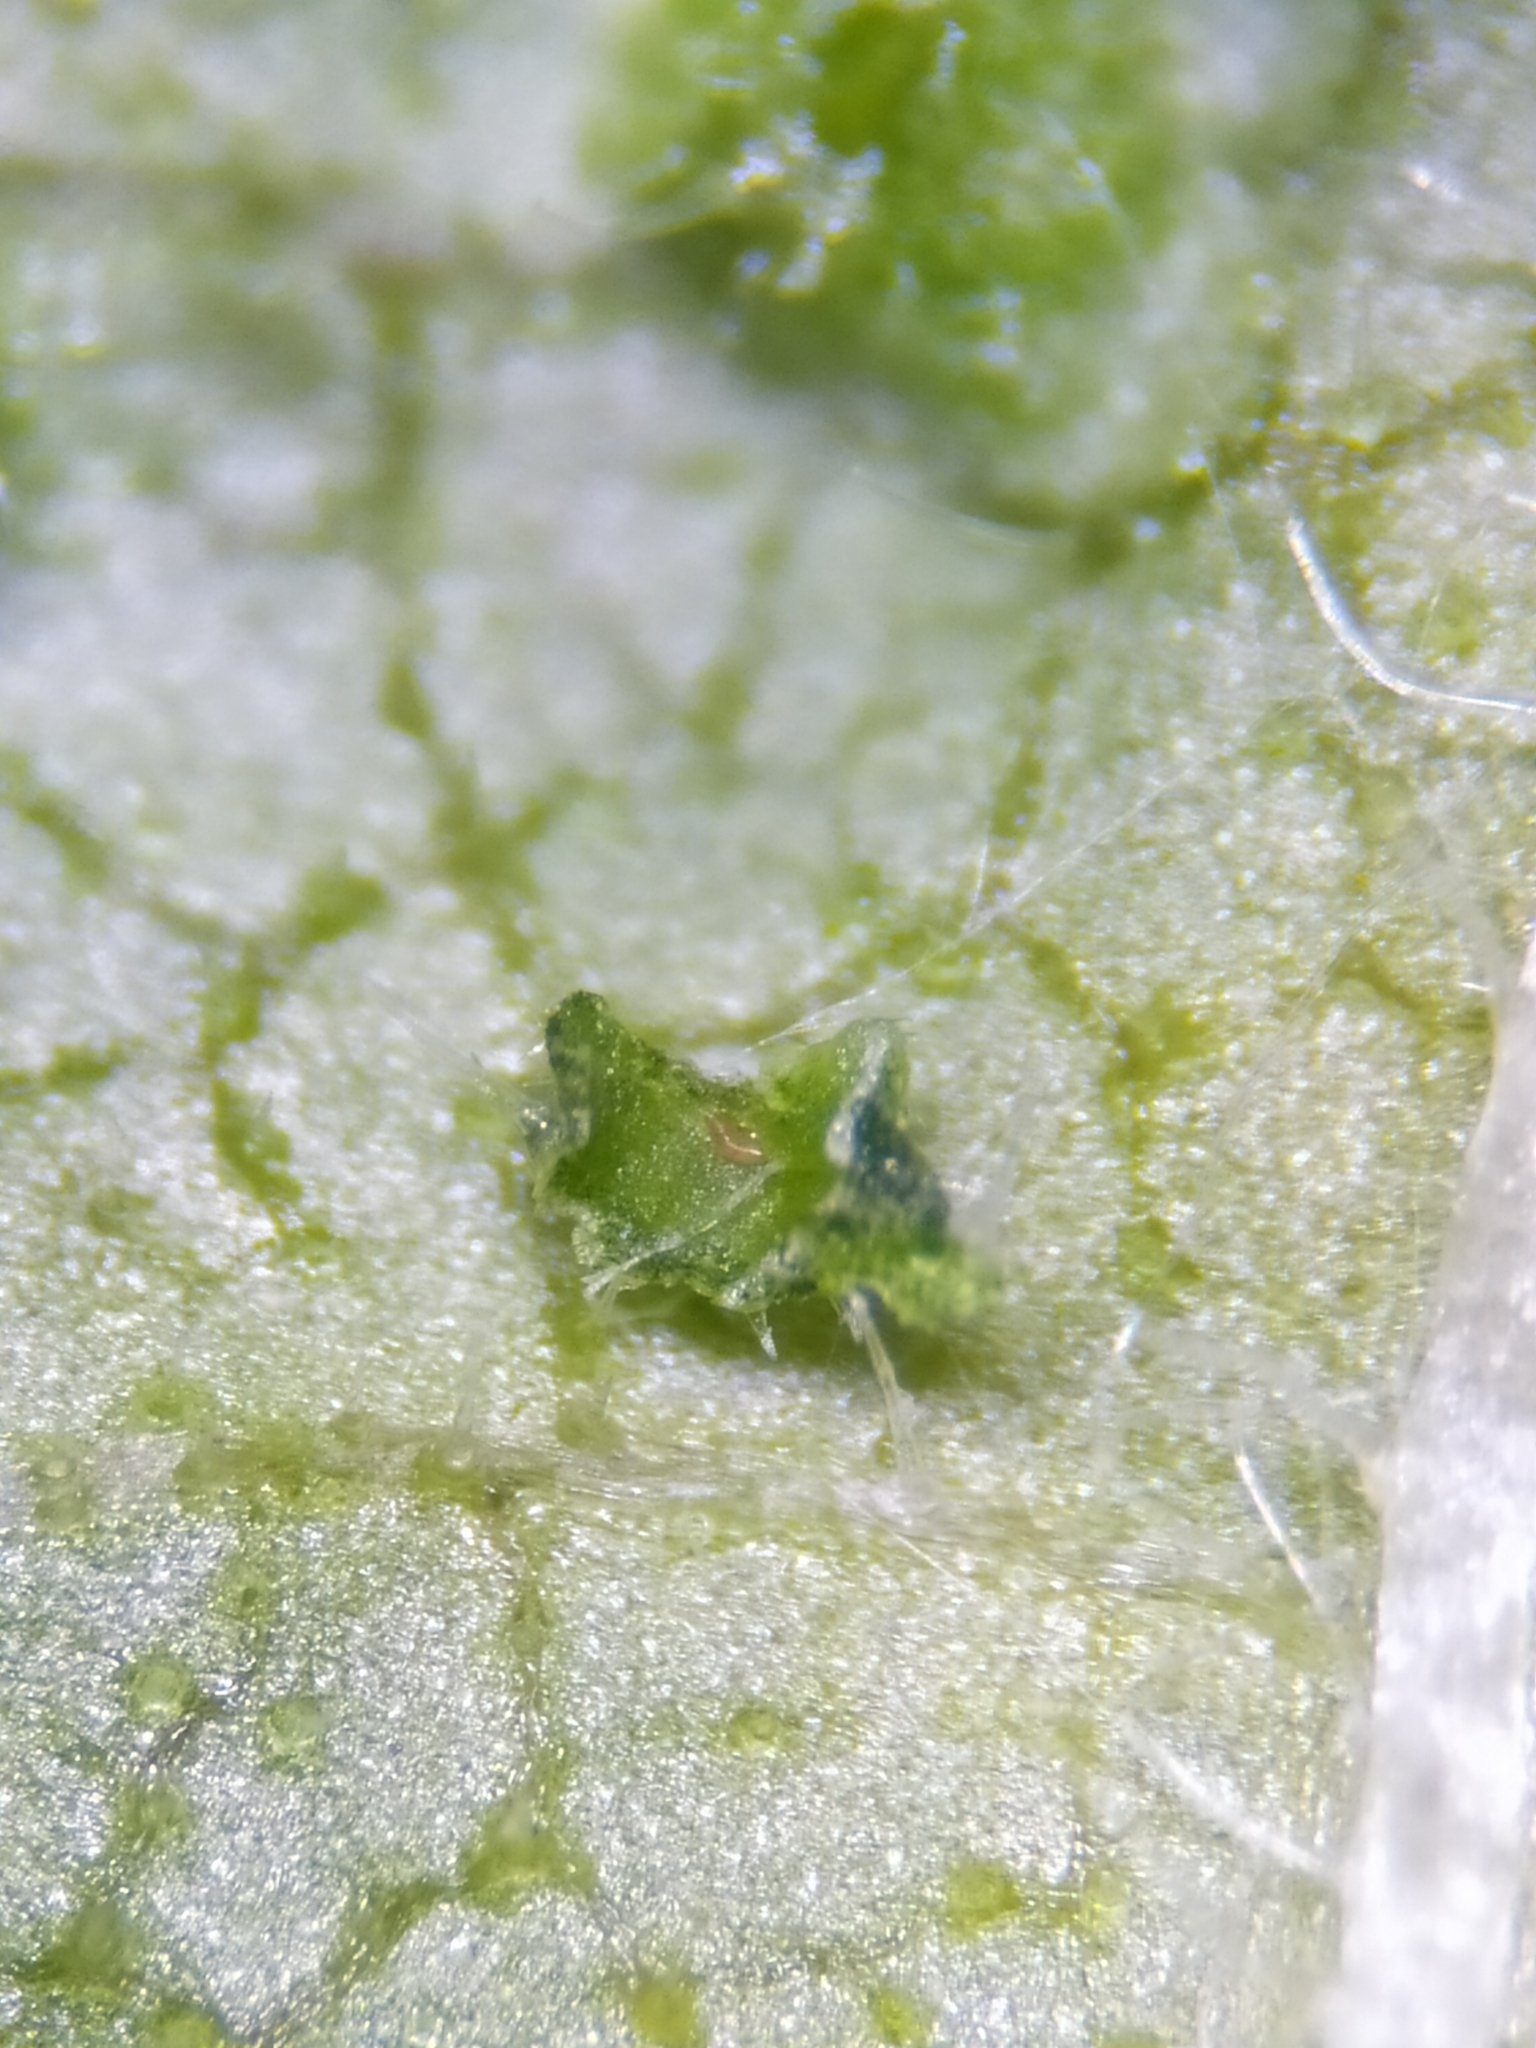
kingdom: Animalia
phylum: Arthropoda
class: Arachnida
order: Trombidiformes
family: Eriophyidae
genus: Aceria
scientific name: Aceria brevipunctata
